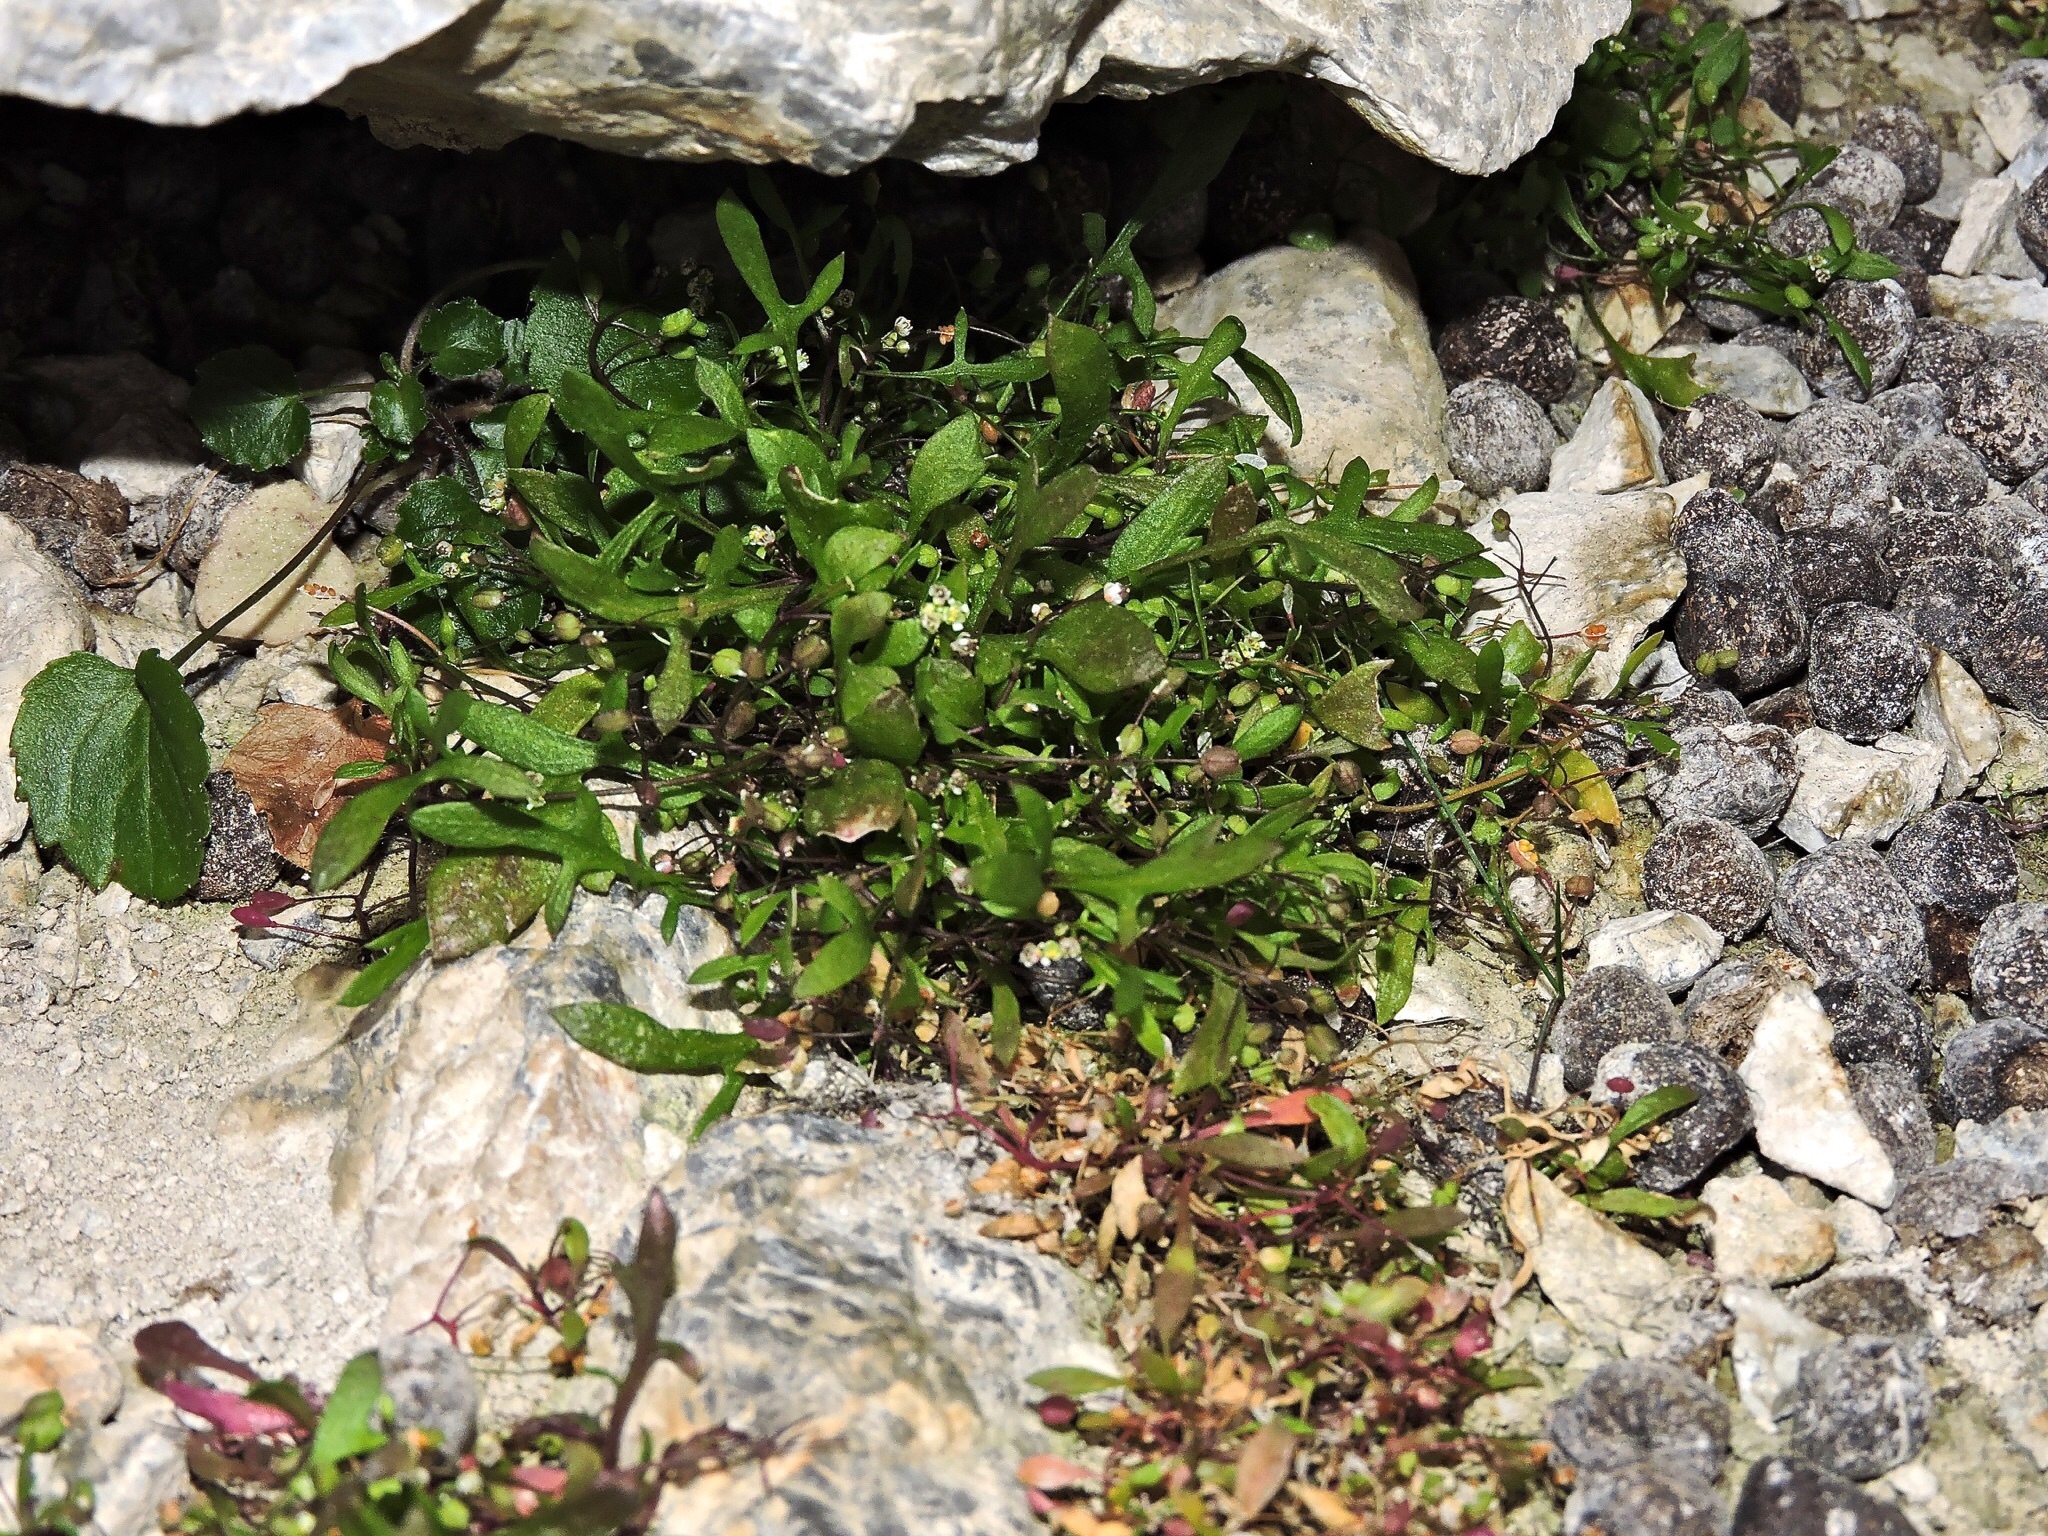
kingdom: Plantae
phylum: Tracheophyta
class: Magnoliopsida
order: Brassicales
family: Brassicaceae
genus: Hornungia
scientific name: Hornungia procumbens
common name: Oval purse
